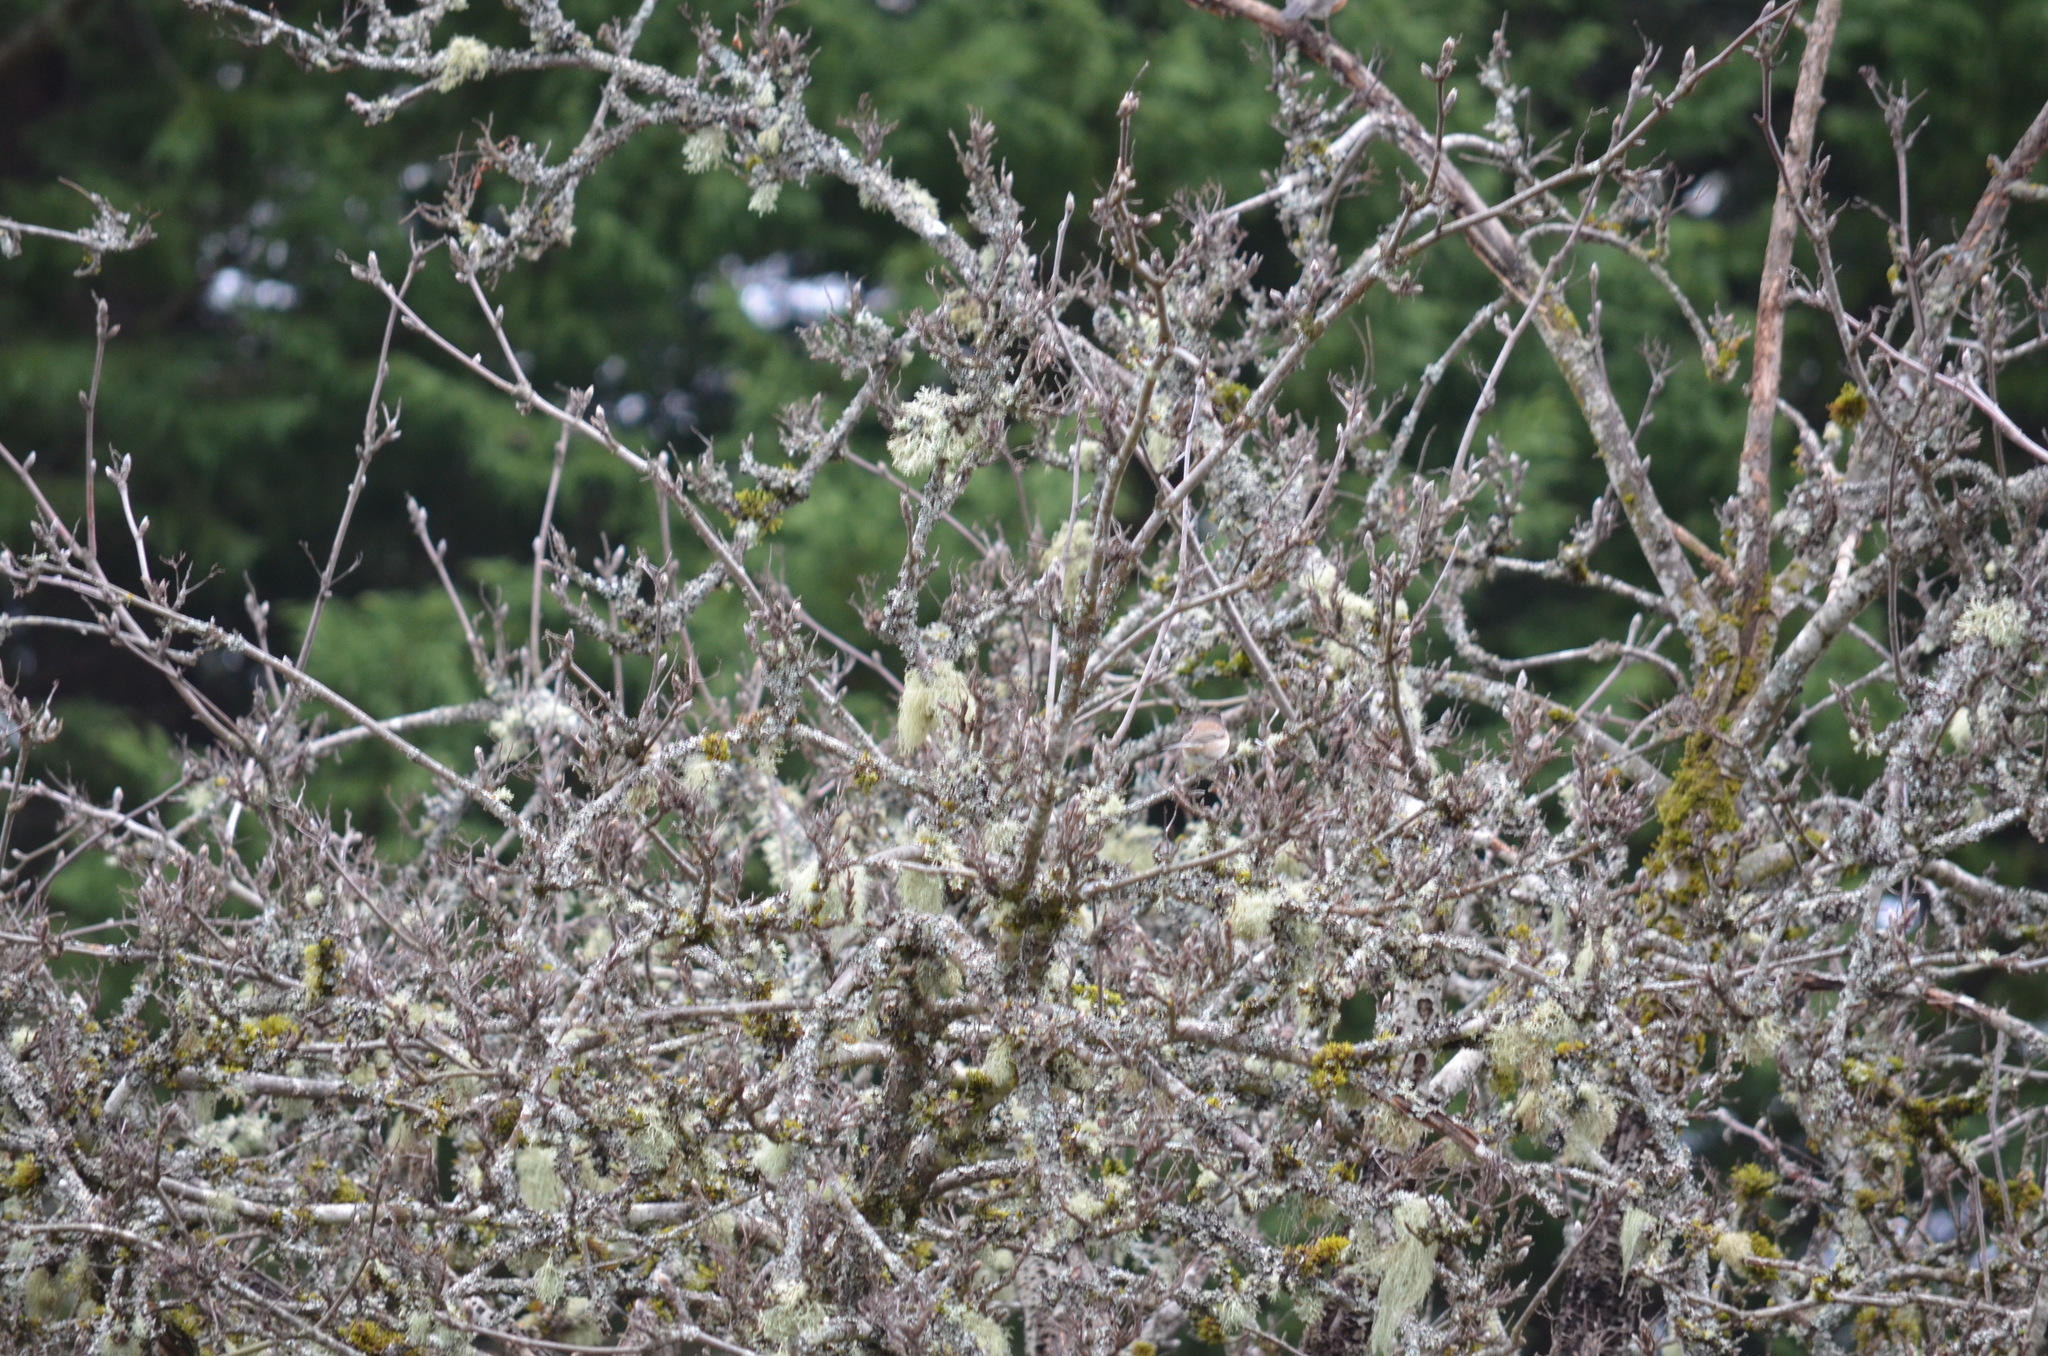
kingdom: Animalia
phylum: Chordata
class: Aves
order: Passeriformes
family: Passerellidae
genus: Junco
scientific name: Junco hyemalis
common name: Dark-eyed junco
